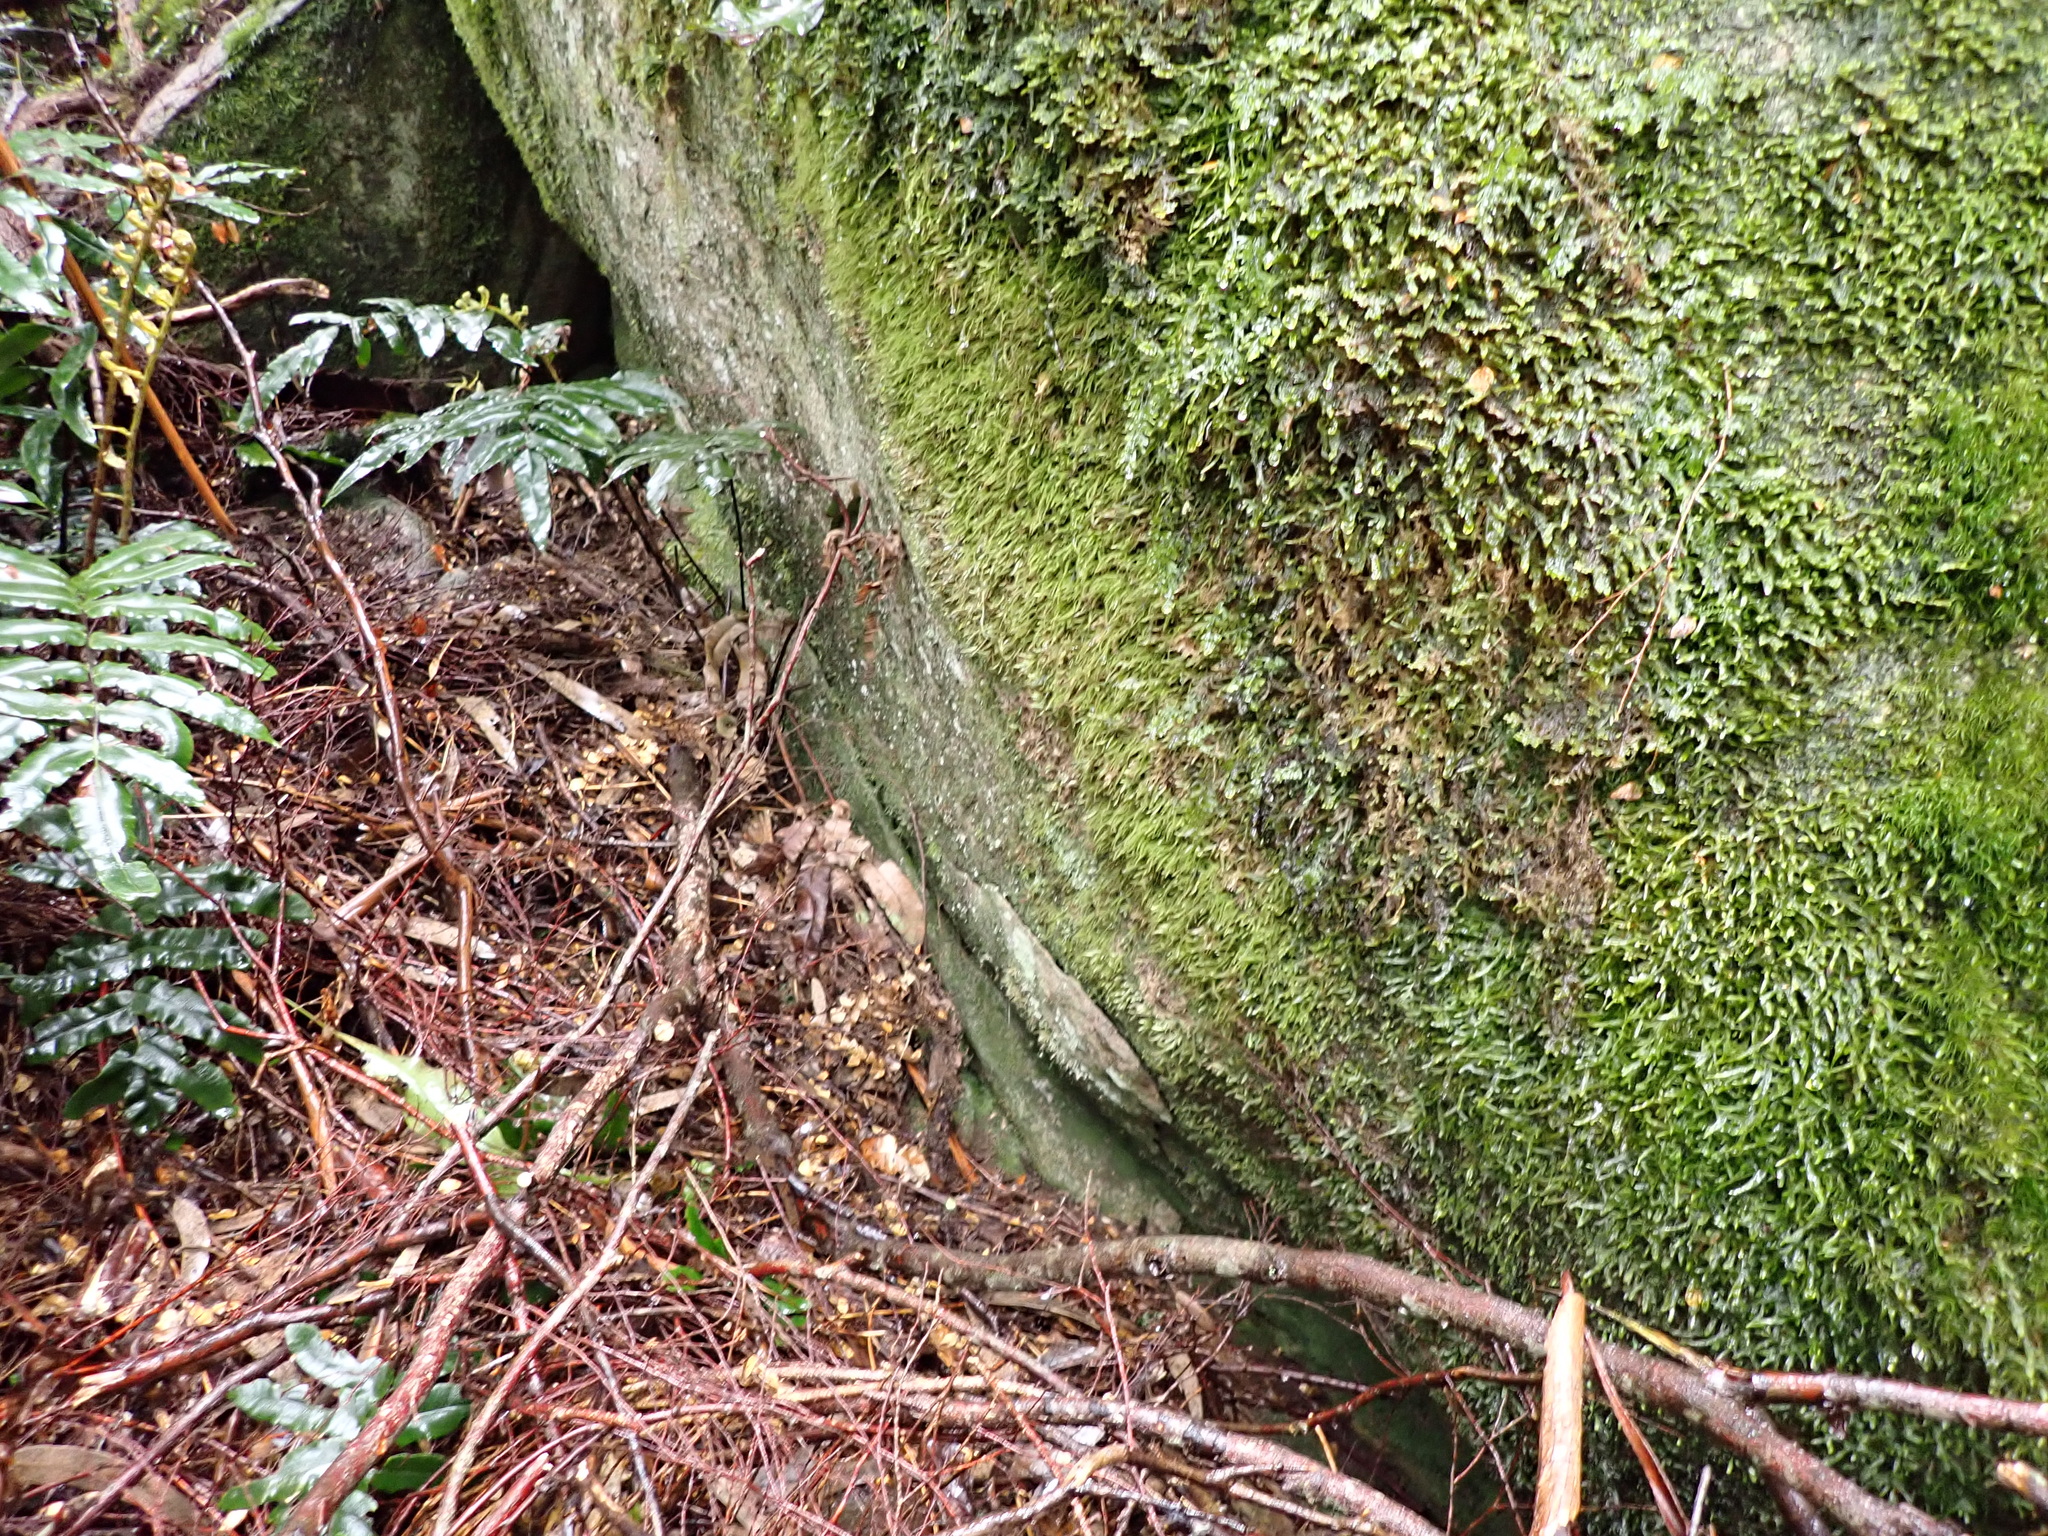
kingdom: Plantae
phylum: Bryophyta
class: Bryopsida
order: Orthodontiales
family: Orthodontiaceae
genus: Leptotheca
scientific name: Leptotheca gaudichaudii
